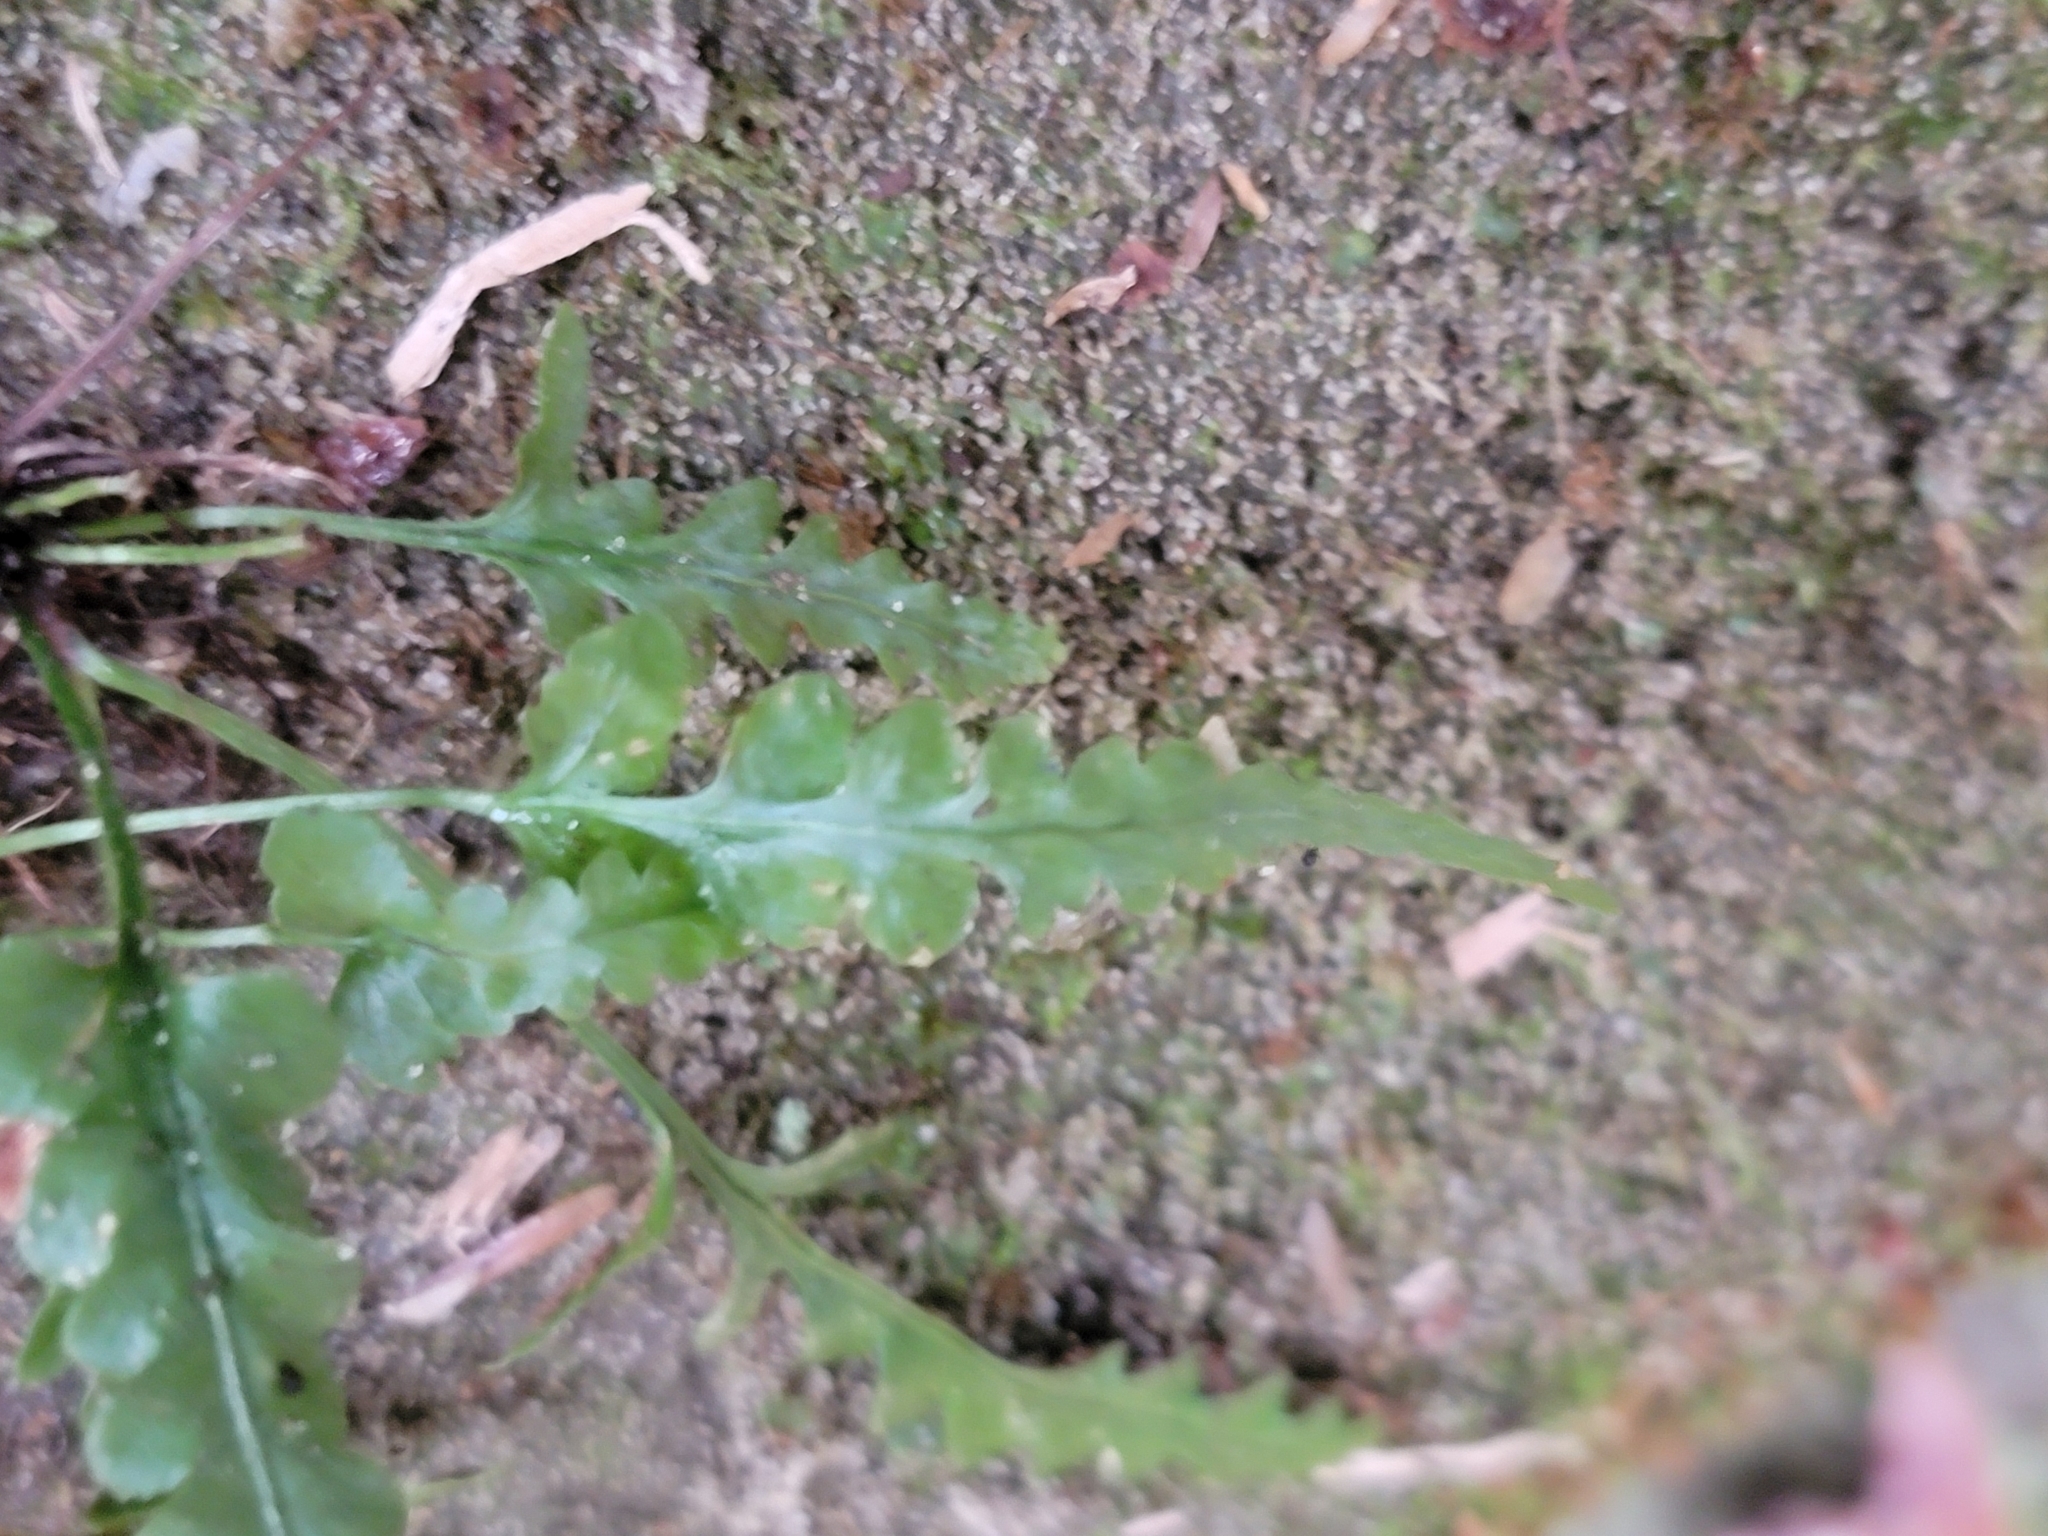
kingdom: Plantae
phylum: Tracheophyta
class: Polypodiopsida
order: Polypodiales
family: Aspleniaceae
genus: Asplenium
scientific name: Asplenium pinnatifidum
